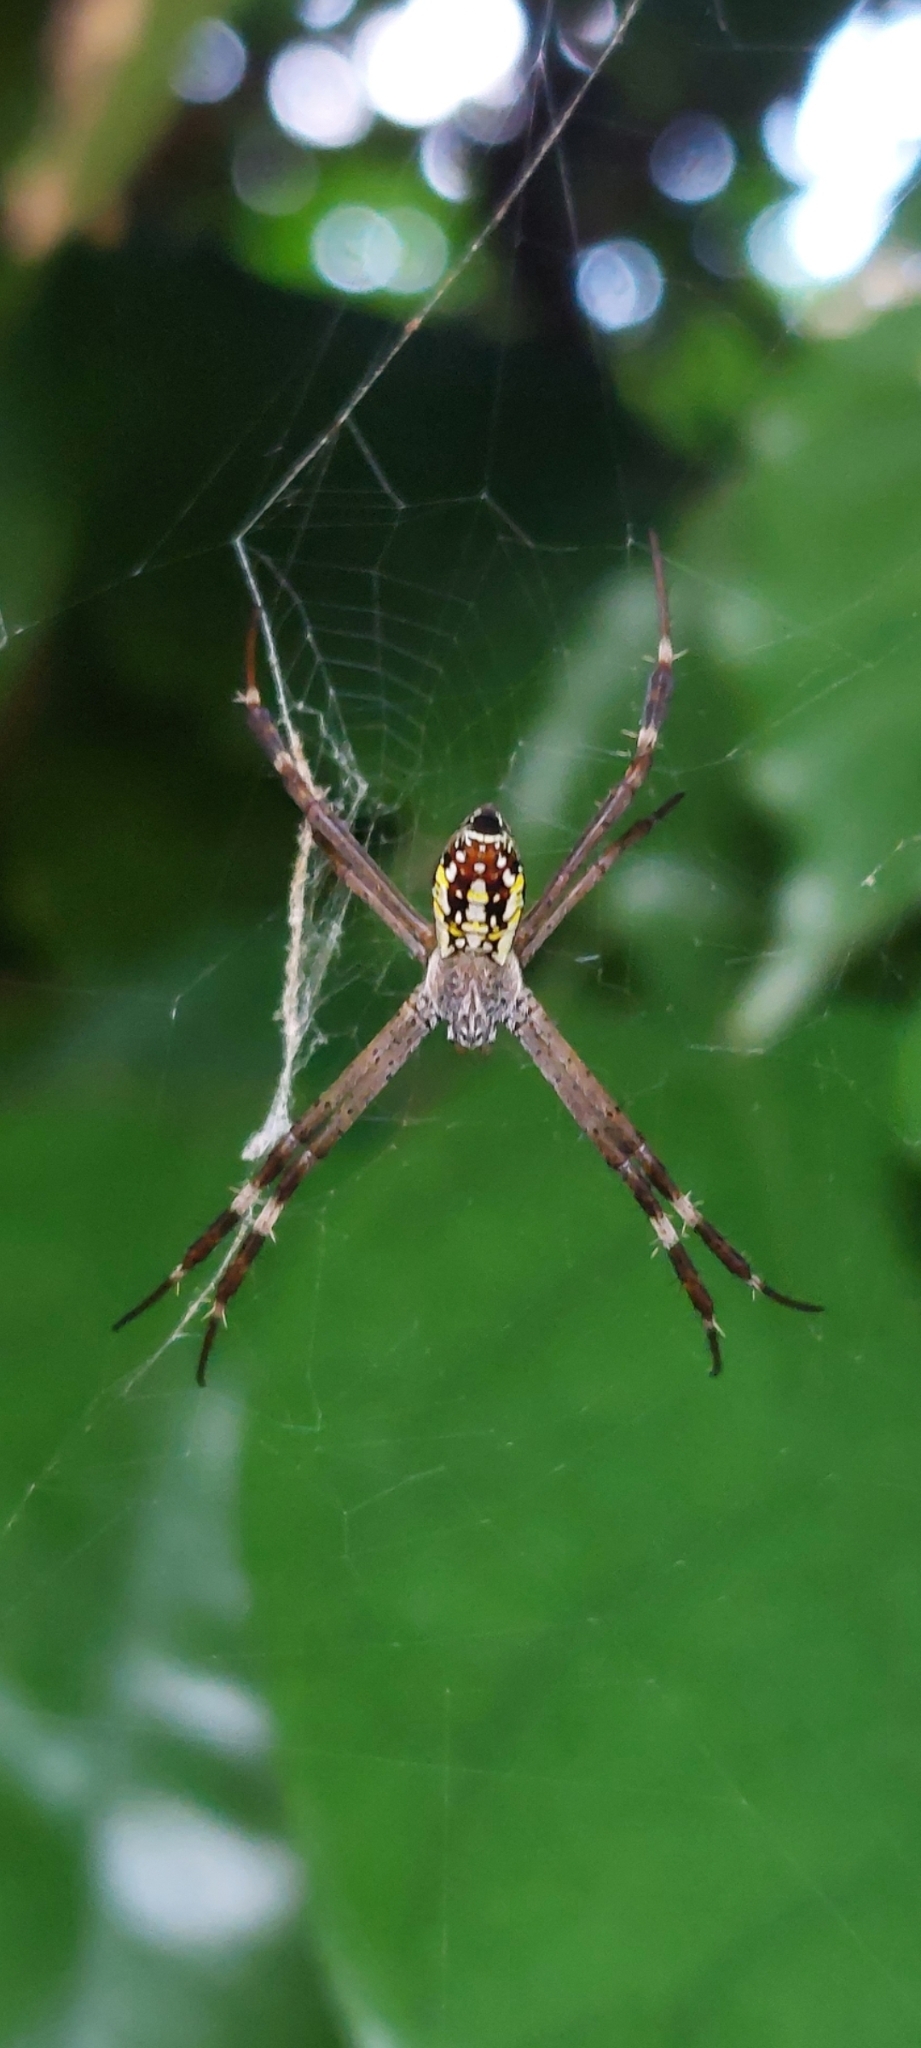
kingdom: Animalia
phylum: Arthropoda
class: Arachnida
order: Araneae
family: Araneidae
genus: Argiope
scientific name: Argiope dang
